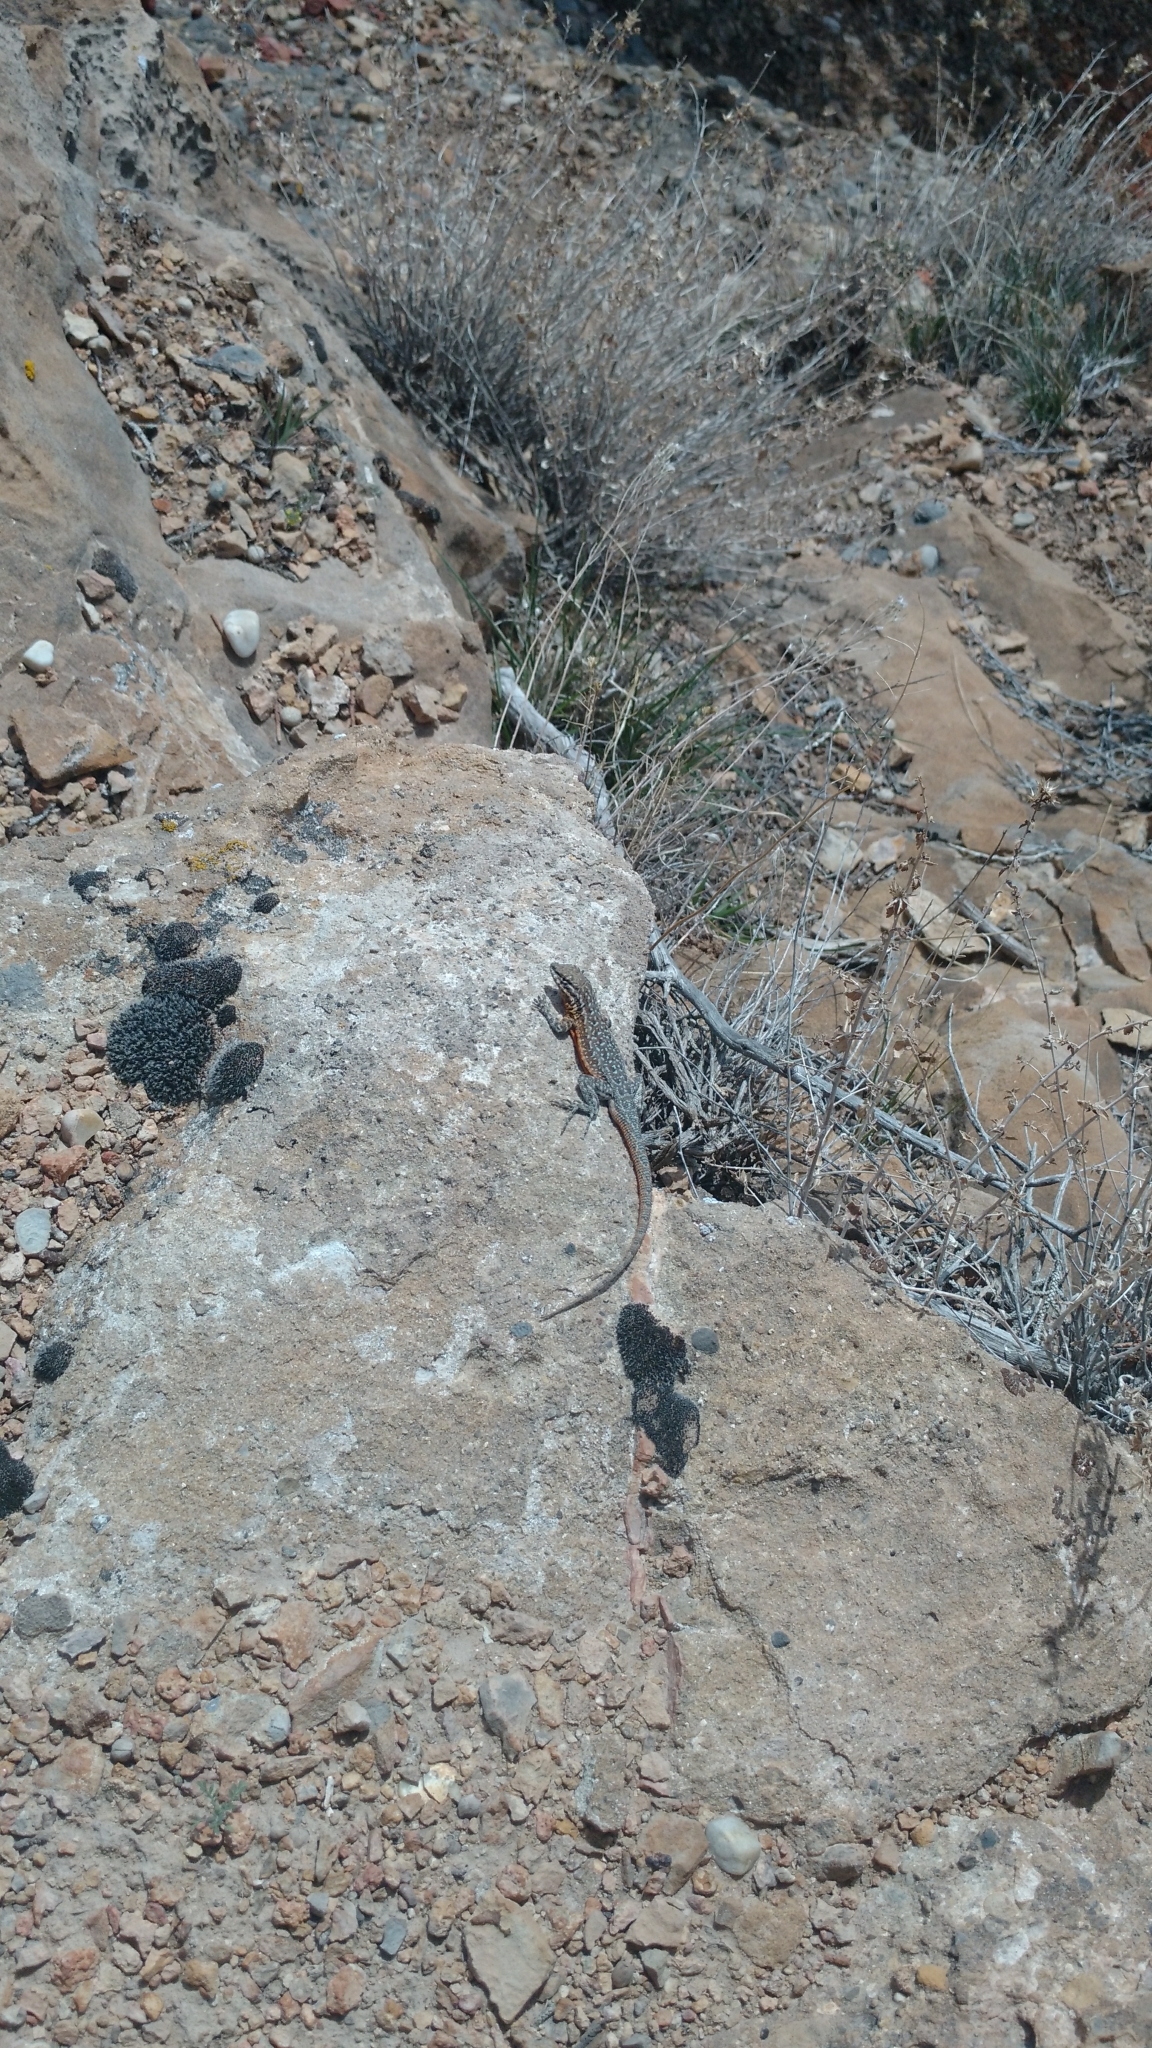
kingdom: Animalia
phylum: Chordata
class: Squamata
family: Phrynosomatidae
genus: Uta
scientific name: Uta stansburiana
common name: Side-blotched lizard
